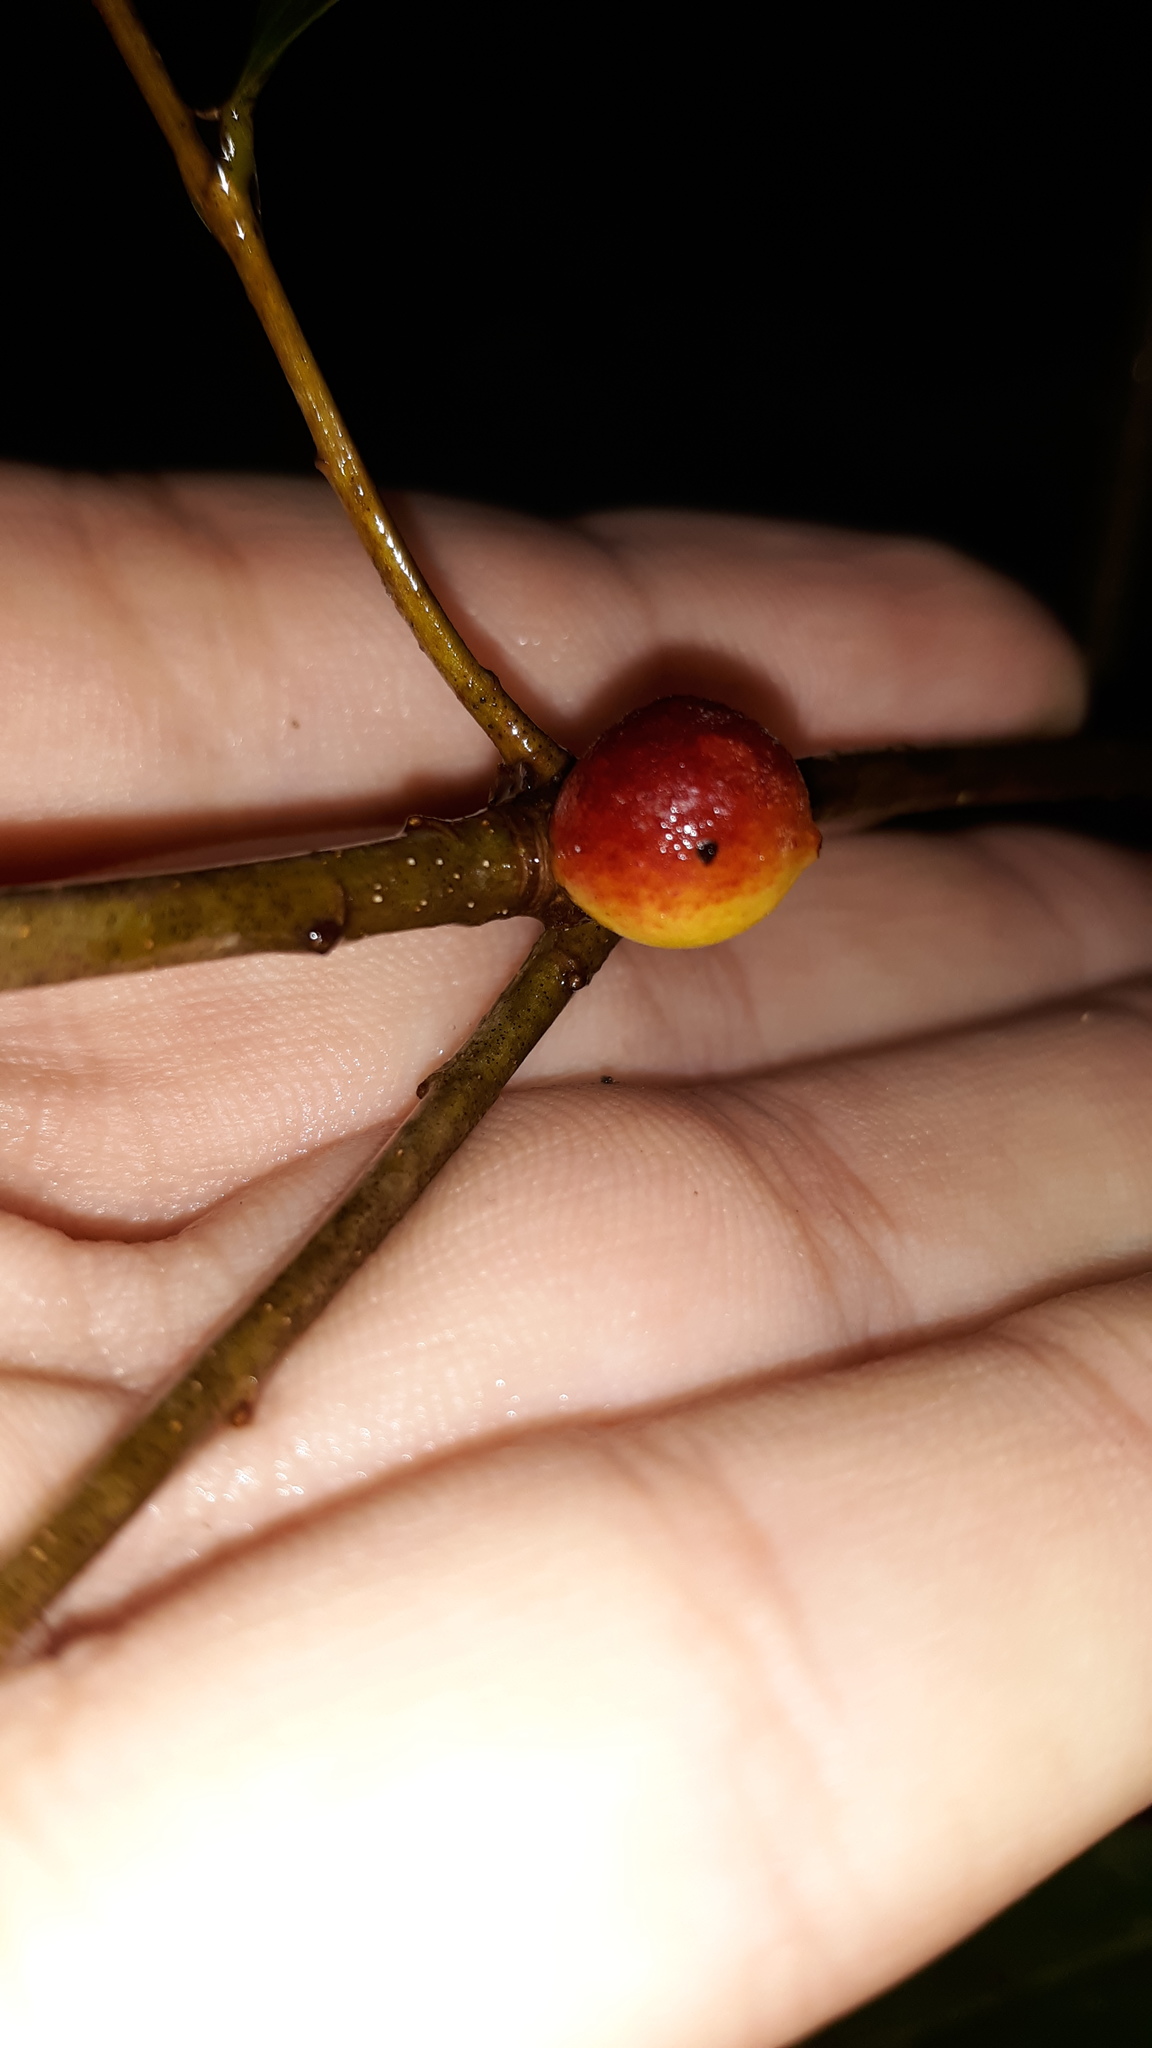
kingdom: Animalia
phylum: Arthropoda
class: Insecta
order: Hymenoptera
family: Cynipidae
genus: Disholcaspis
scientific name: Disholcaspis quercusglobulus
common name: Round bullet gall wasp
